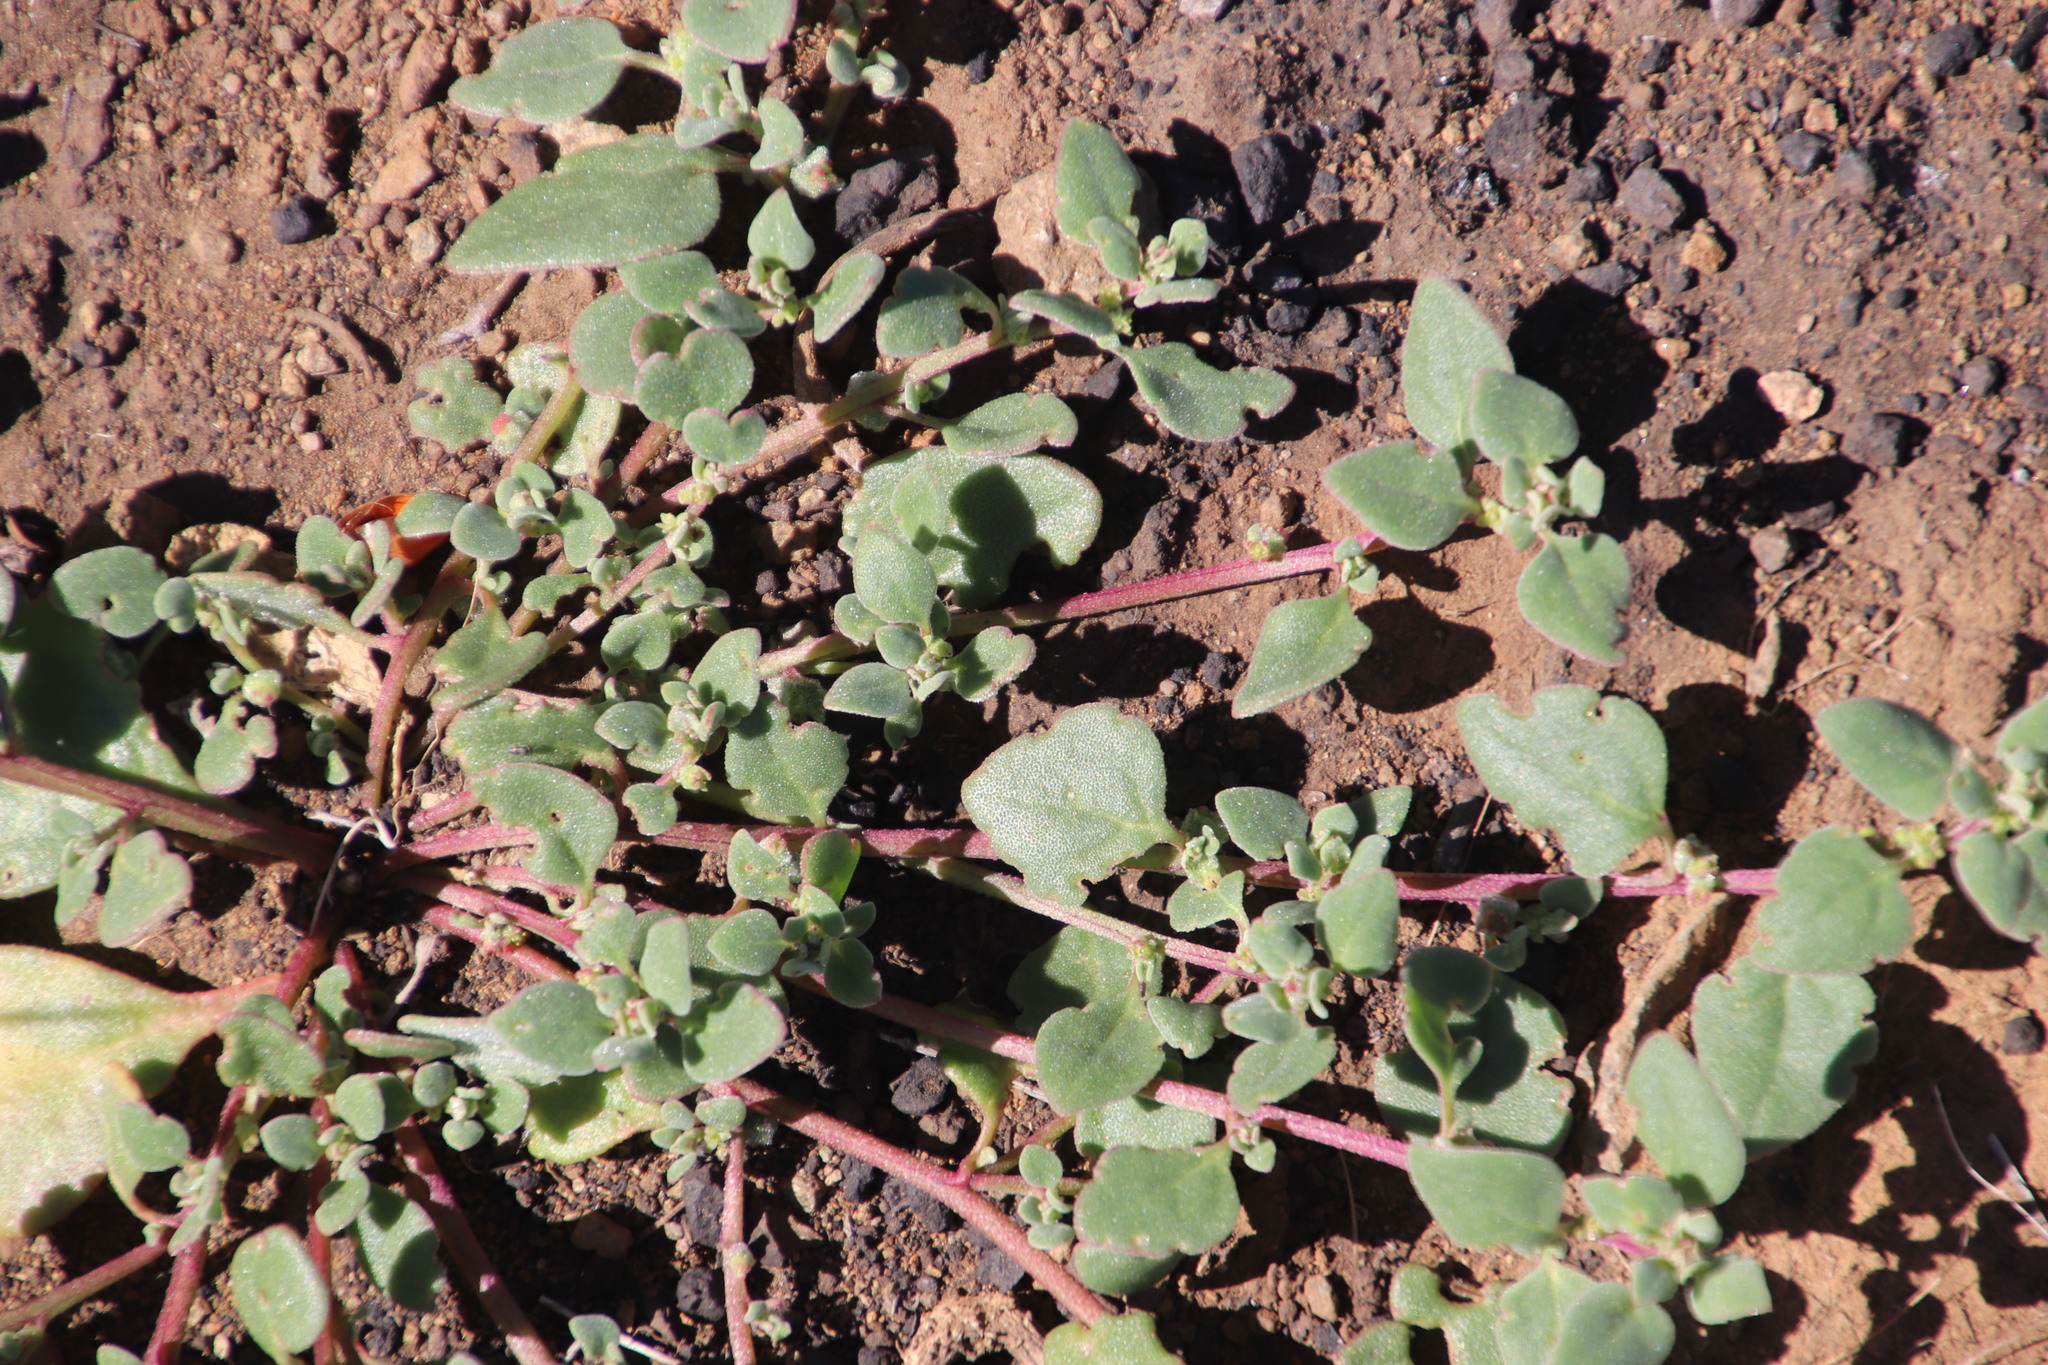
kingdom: Plantae
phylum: Tracheophyta
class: Magnoliopsida
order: Caryophyllales
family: Aizoaceae
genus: Tetragonia
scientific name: Tetragonia microptera
